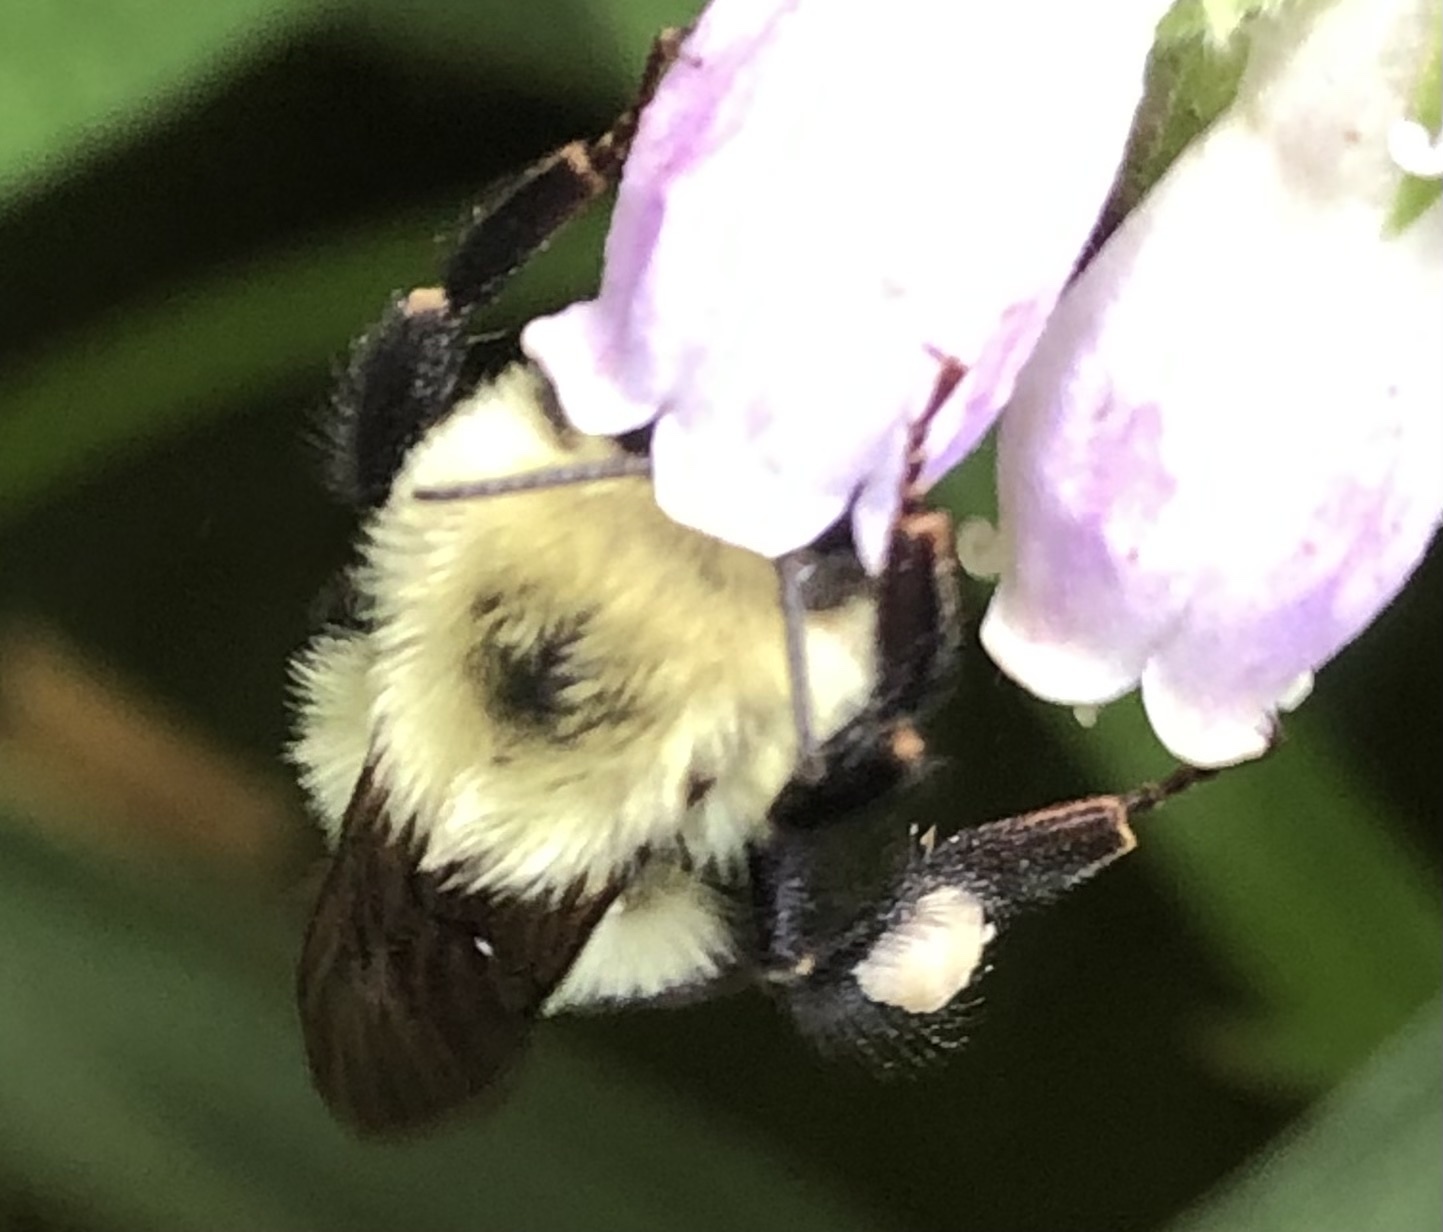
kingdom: Animalia
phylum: Arthropoda
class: Insecta
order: Hymenoptera
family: Apidae
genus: Bombus
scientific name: Bombus bimaculatus
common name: Two-spotted bumble bee
